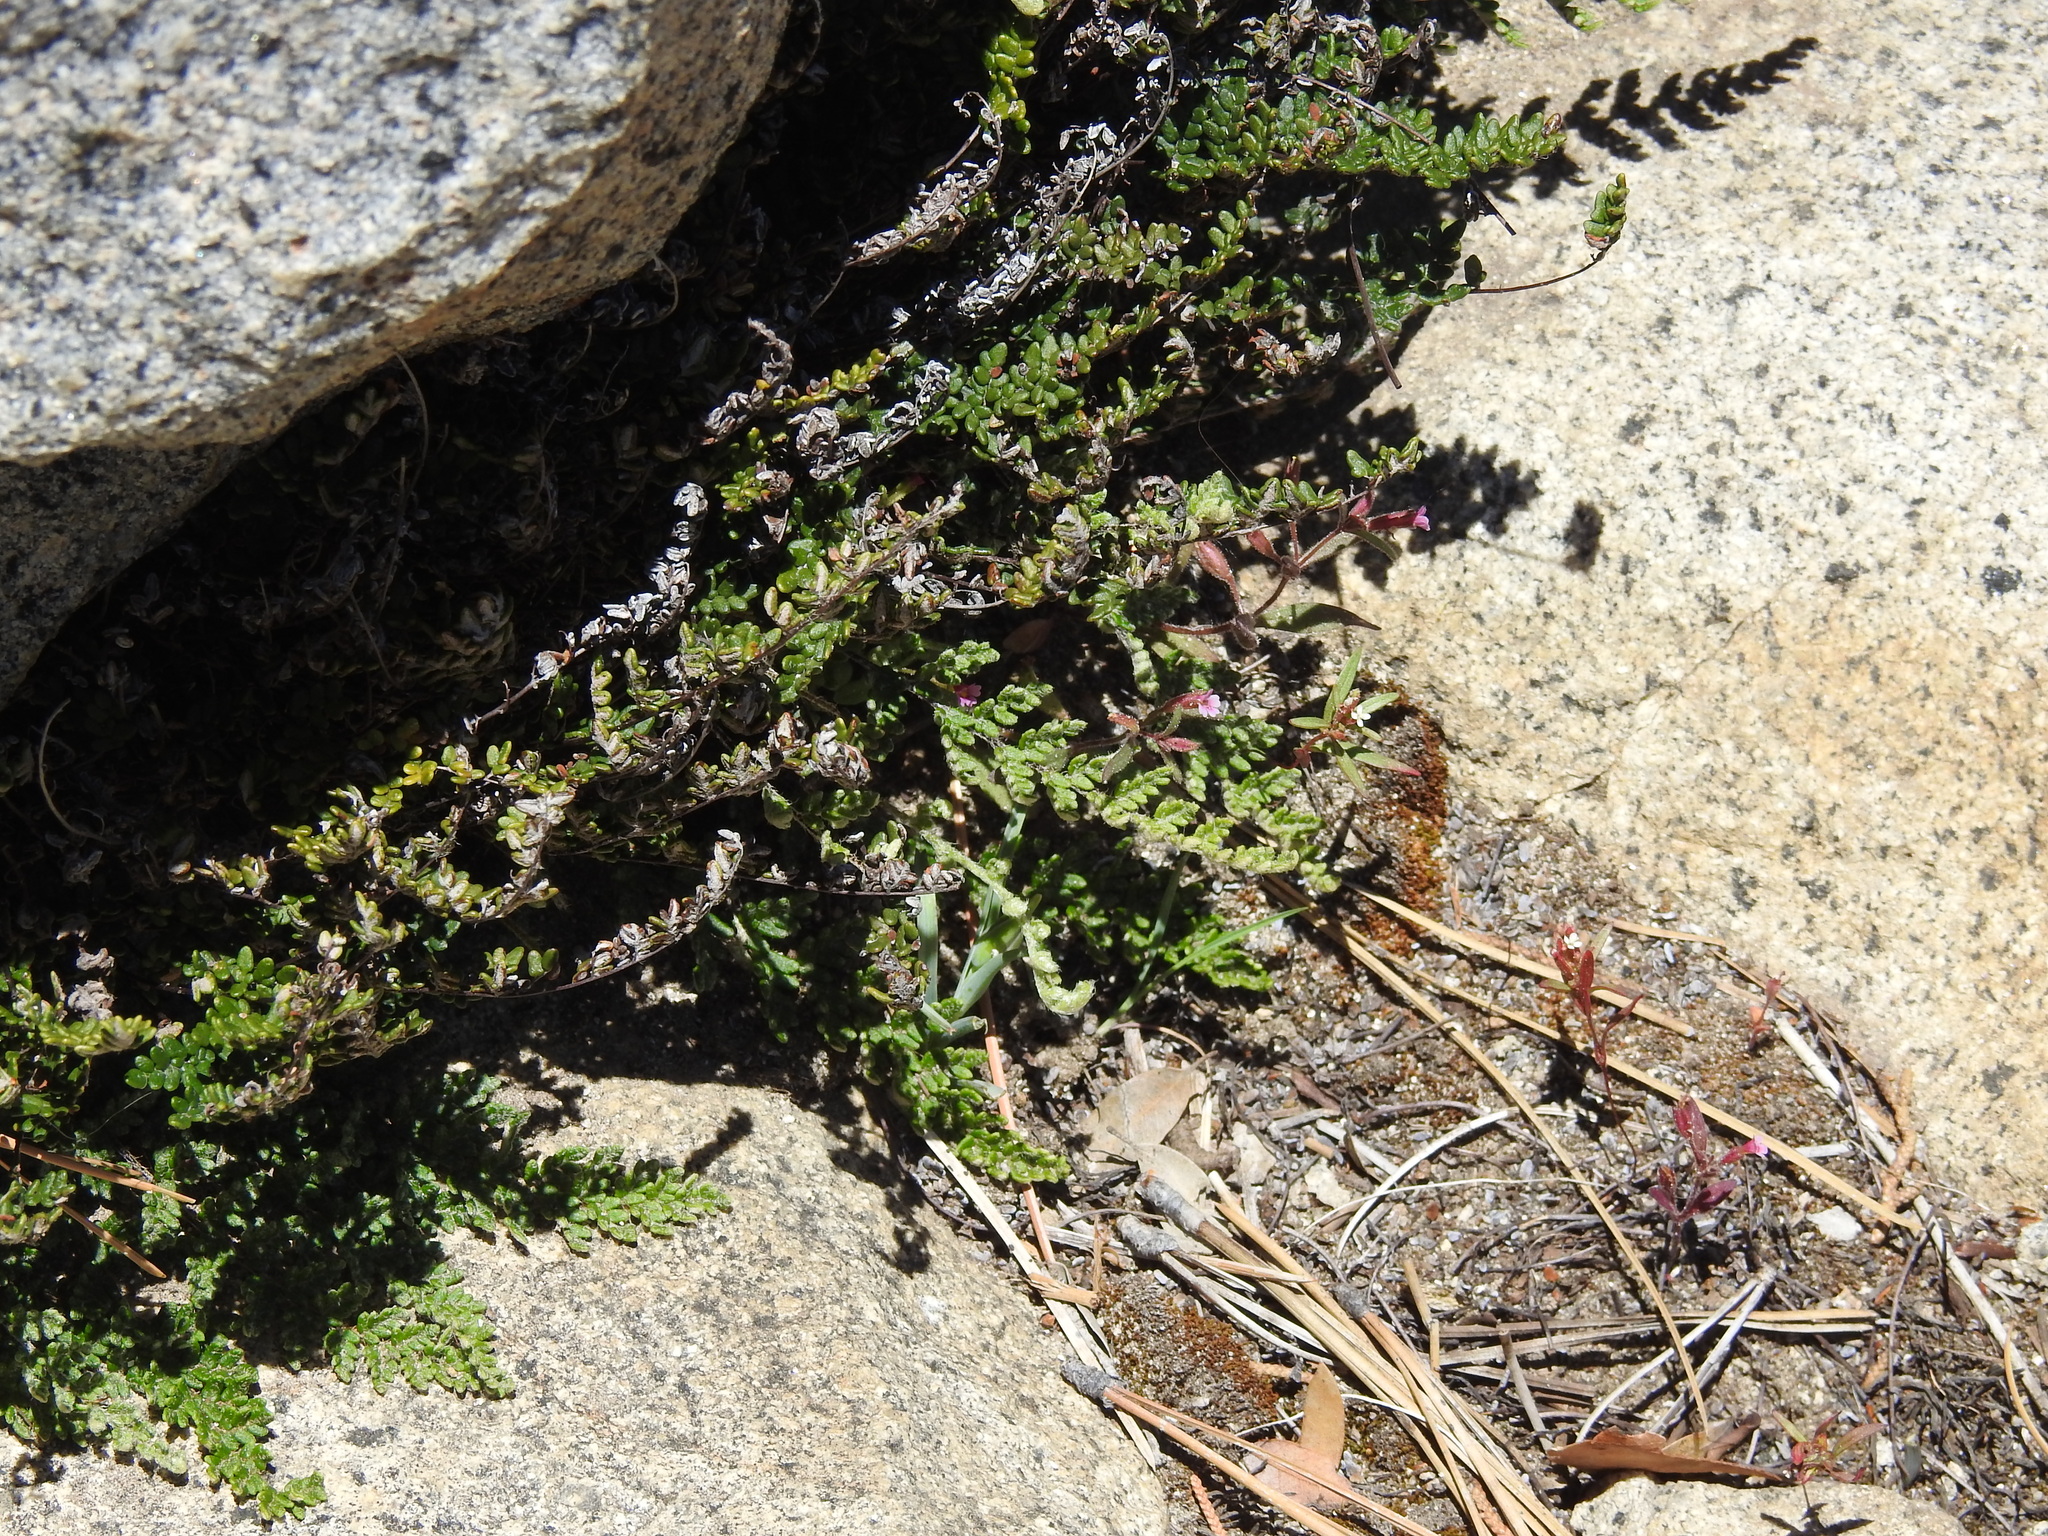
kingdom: Plantae
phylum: Tracheophyta
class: Polypodiopsida
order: Polypodiales
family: Pteridaceae
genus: Myriopteris
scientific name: Myriopteris gracillima
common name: Lace fern
